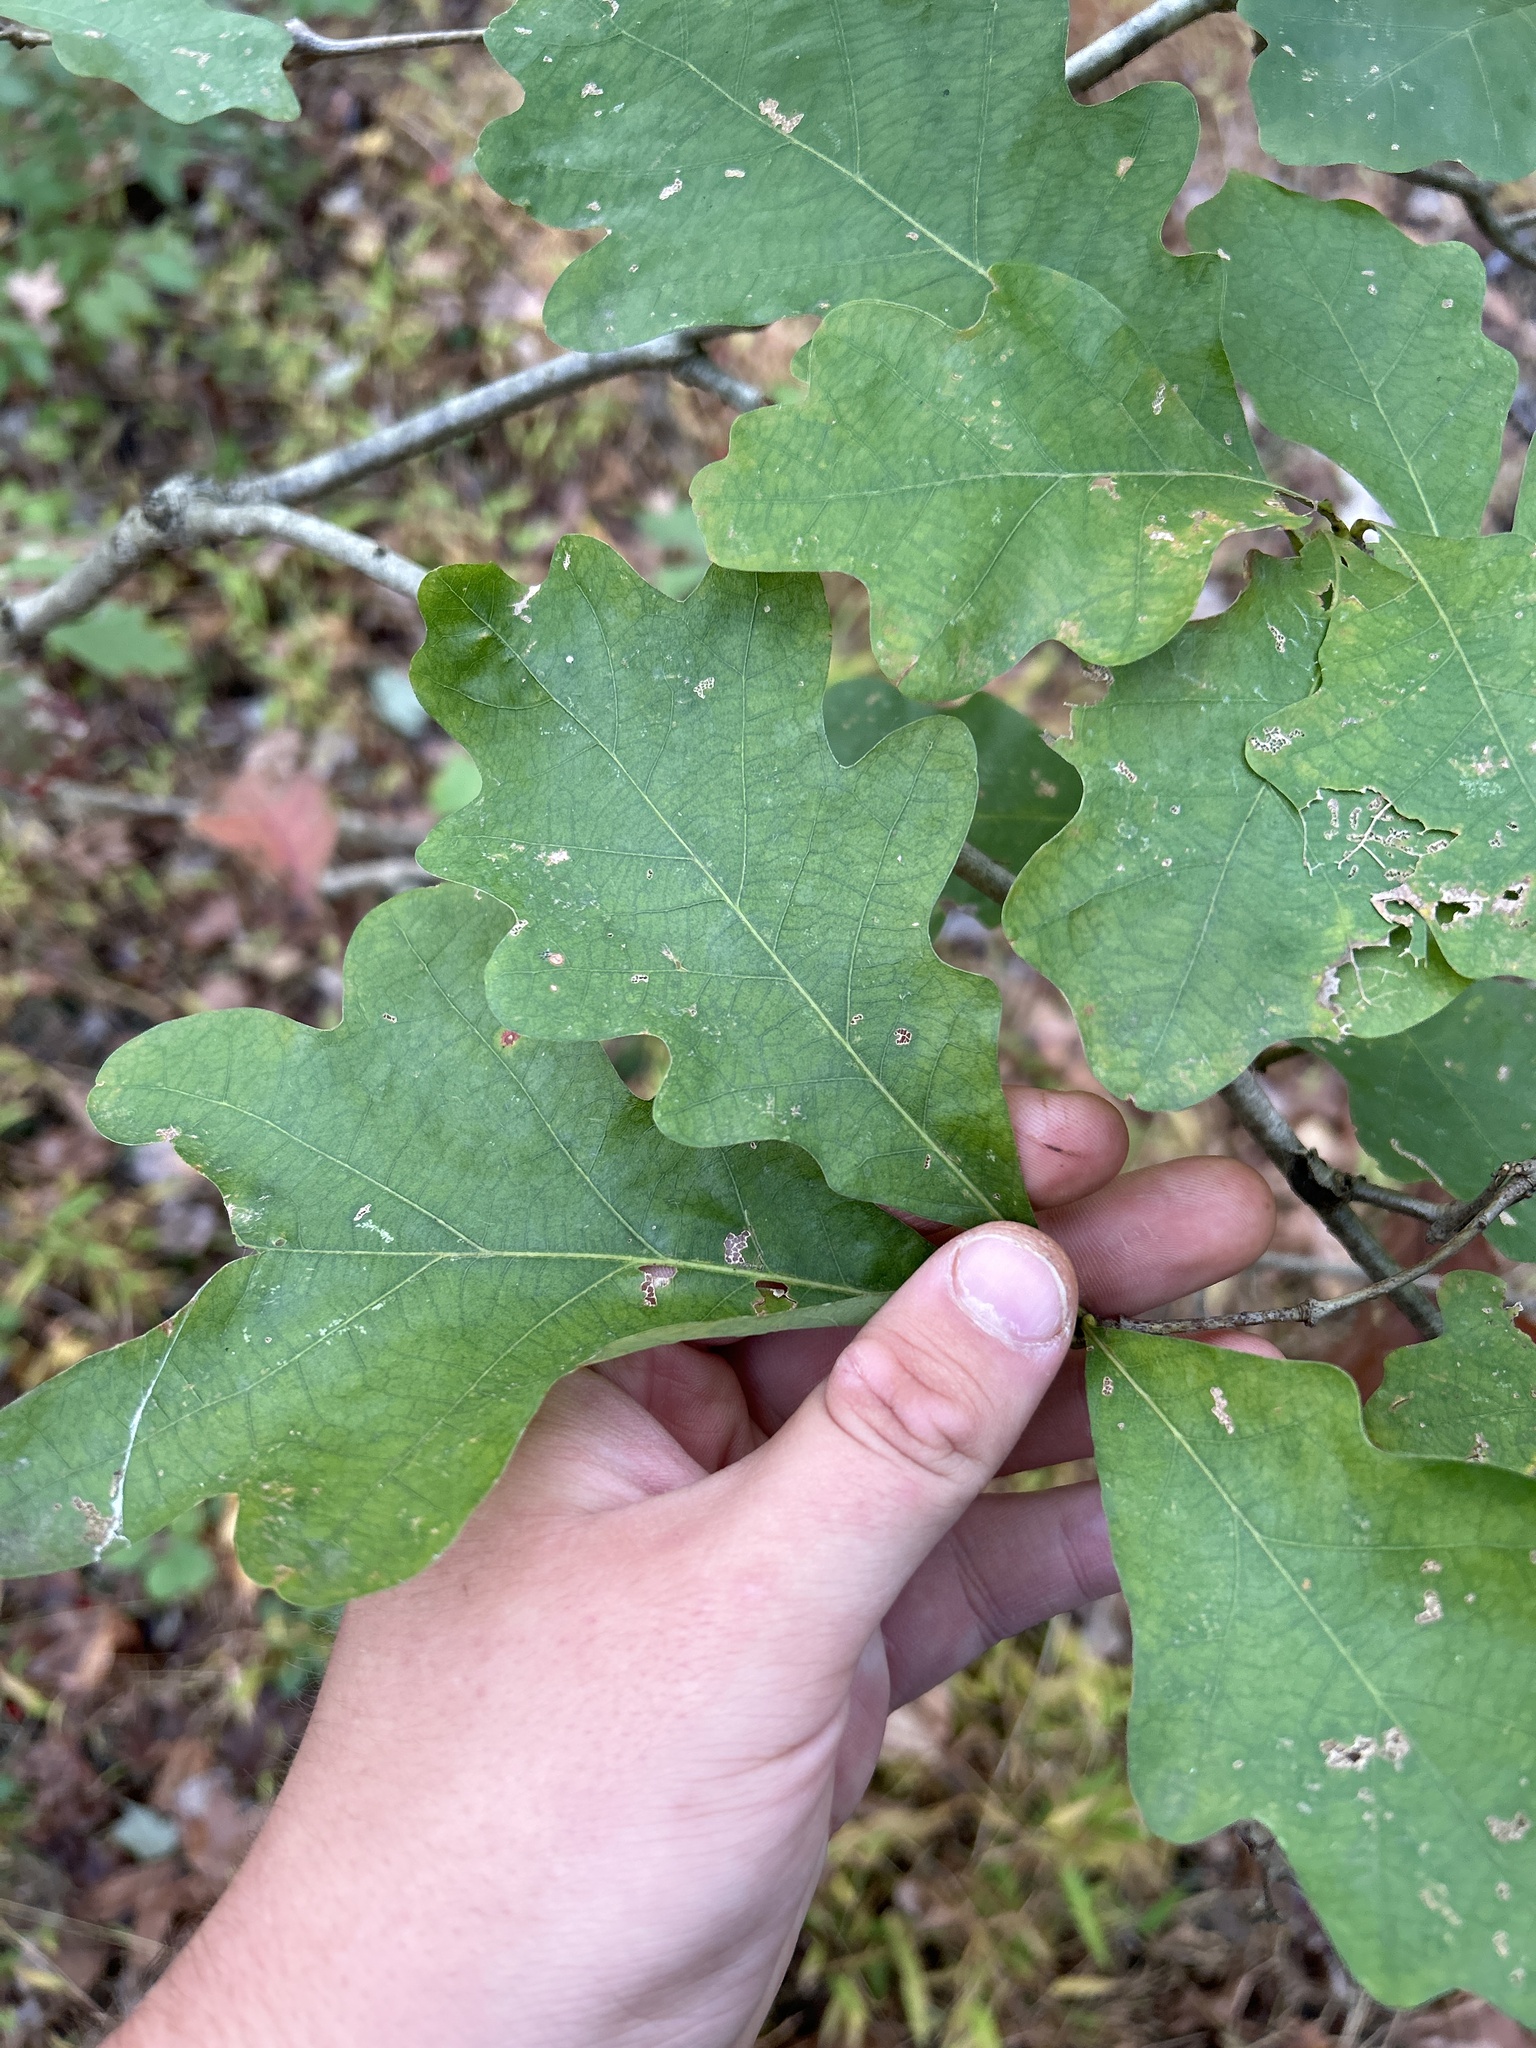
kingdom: Plantae
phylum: Tracheophyta
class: Magnoliopsida
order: Fagales
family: Fagaceae
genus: Quercus
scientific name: Quercus alba
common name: White oak
